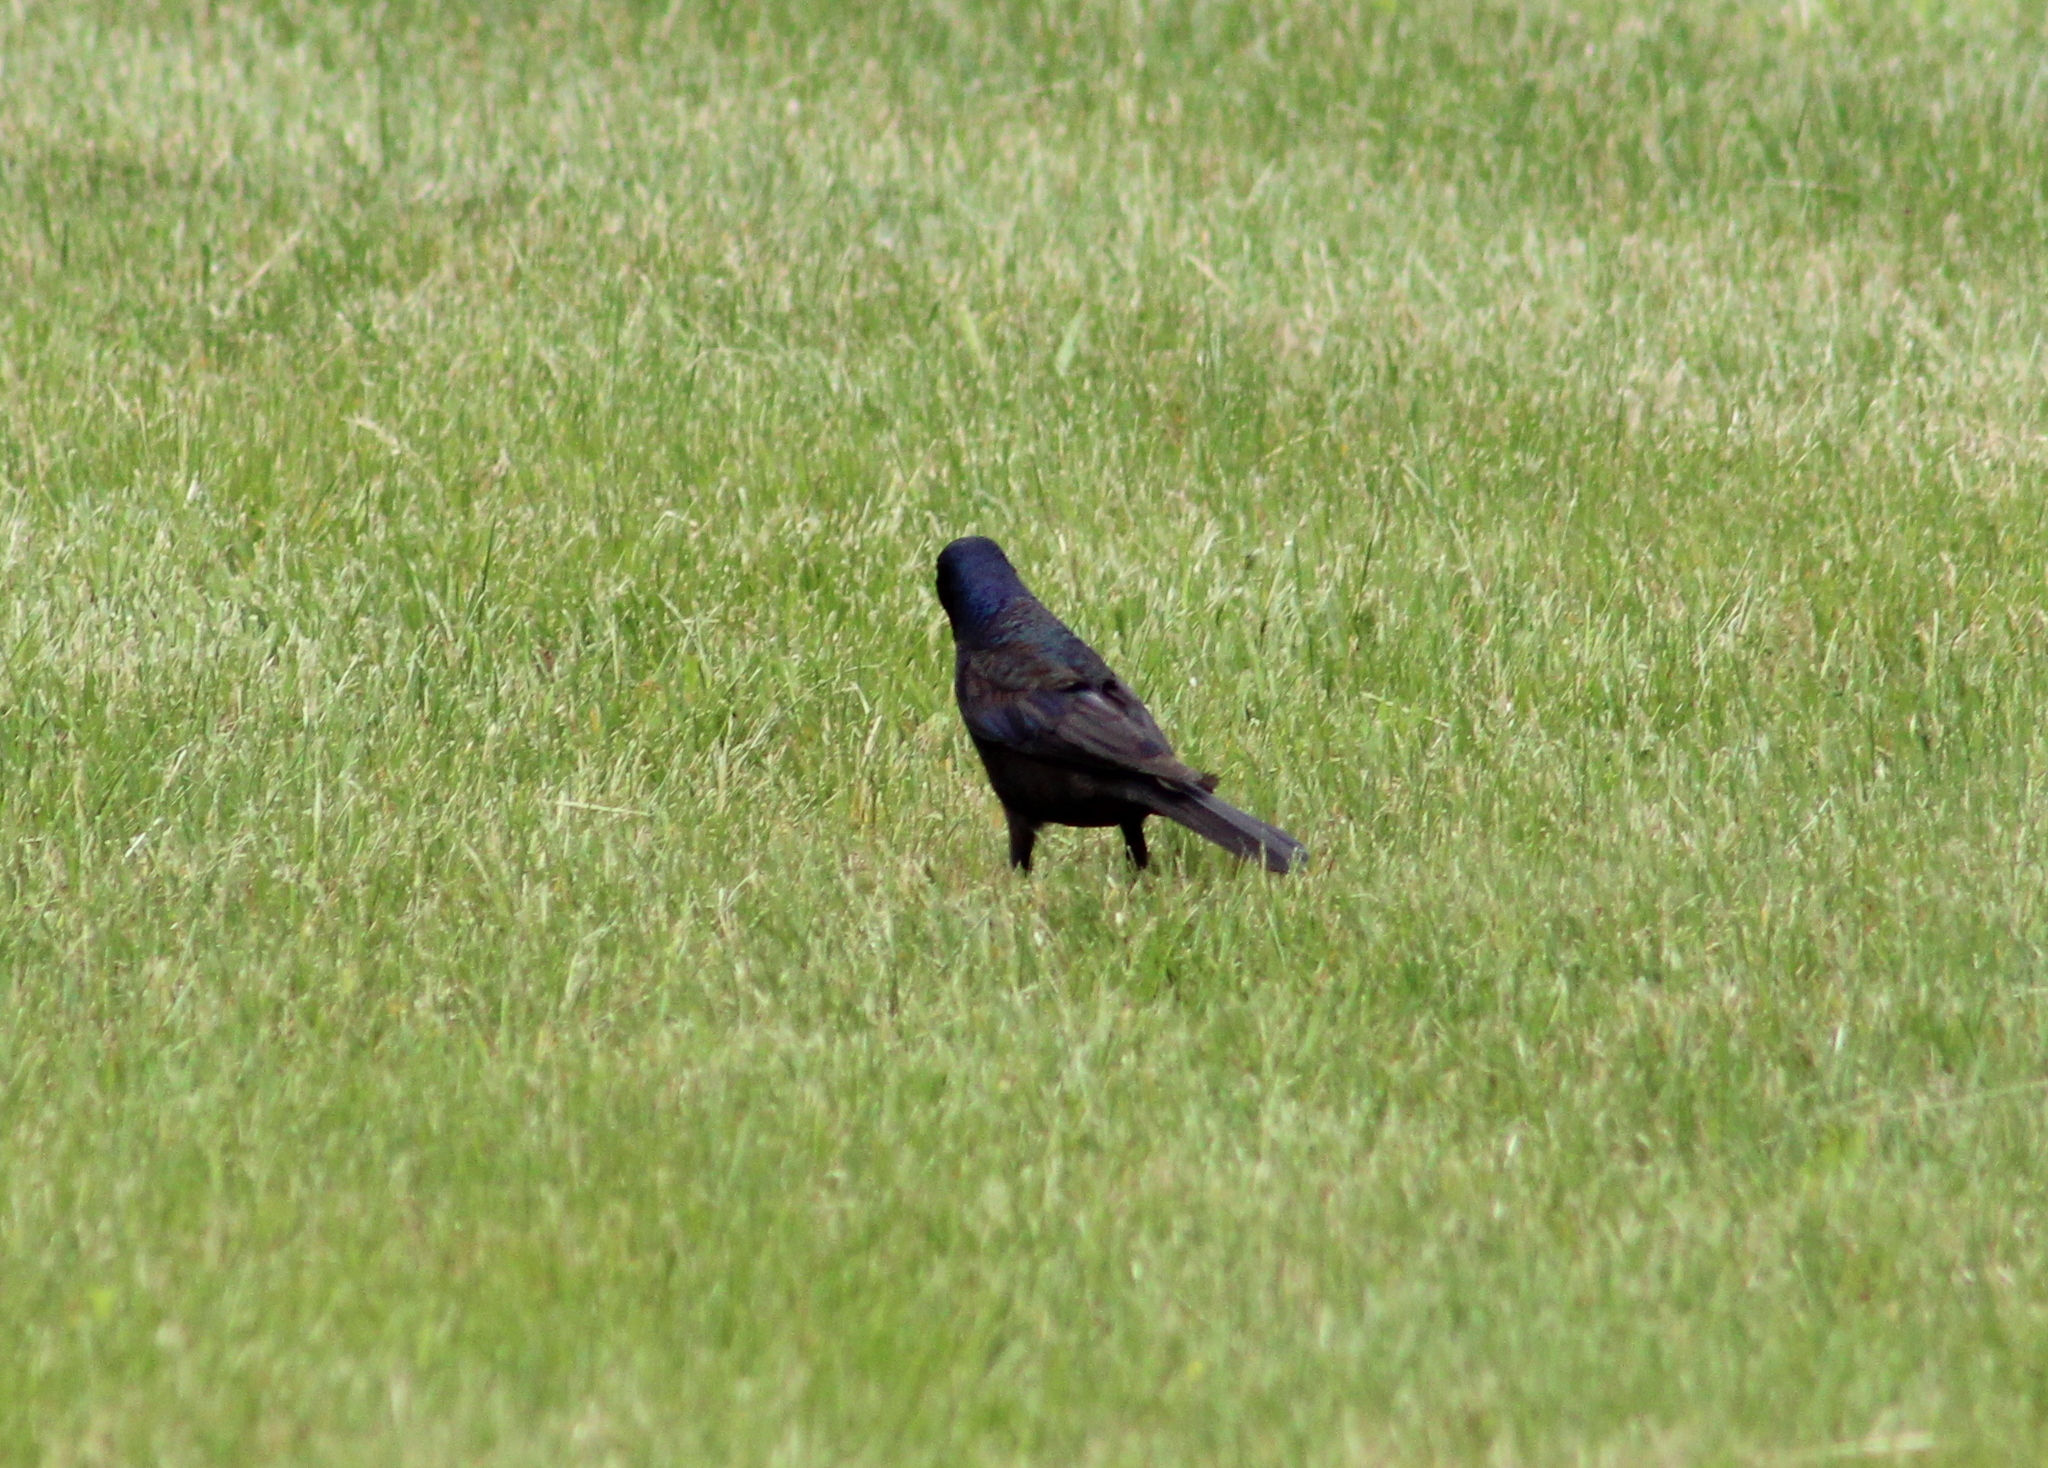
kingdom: Animalia
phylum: Chordata
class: Aves
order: Passeriformes
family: Icteridae
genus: Quiscalus
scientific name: Quiscalus quiscula
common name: Common grackle
